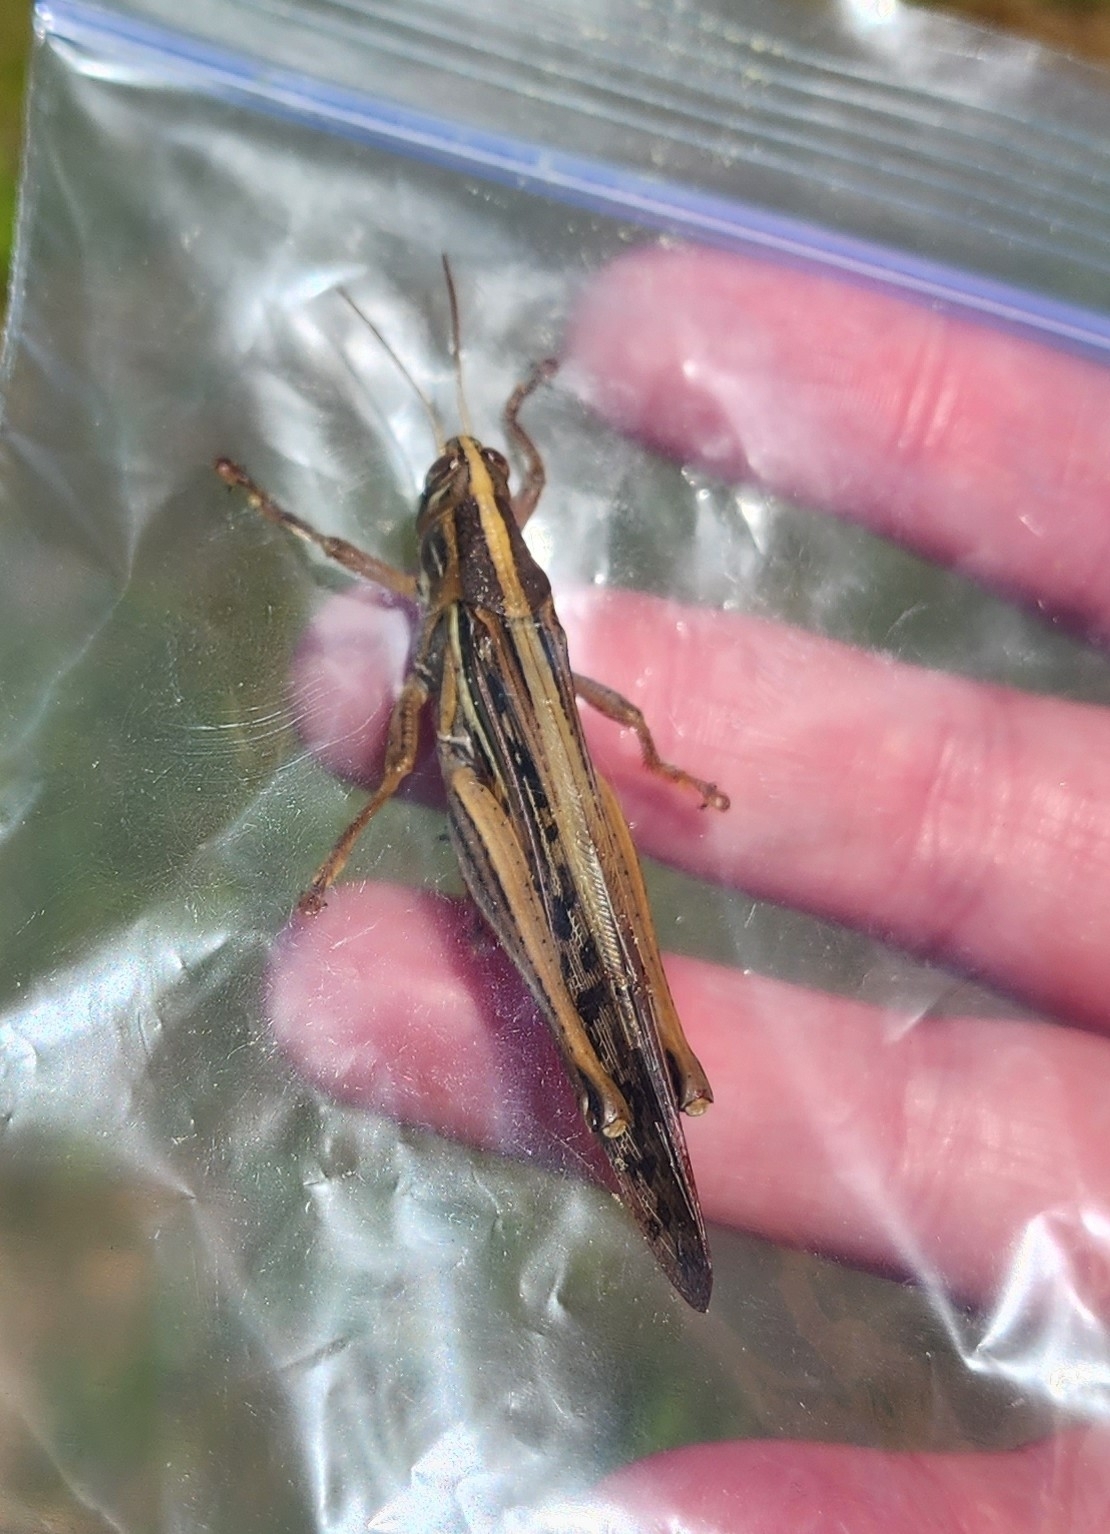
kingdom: Animalia
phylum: Arthropoda
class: Insecta
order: Orthoptera
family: Acrididae
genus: Schistocerca
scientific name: Schistocerca americana
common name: American bird locust
